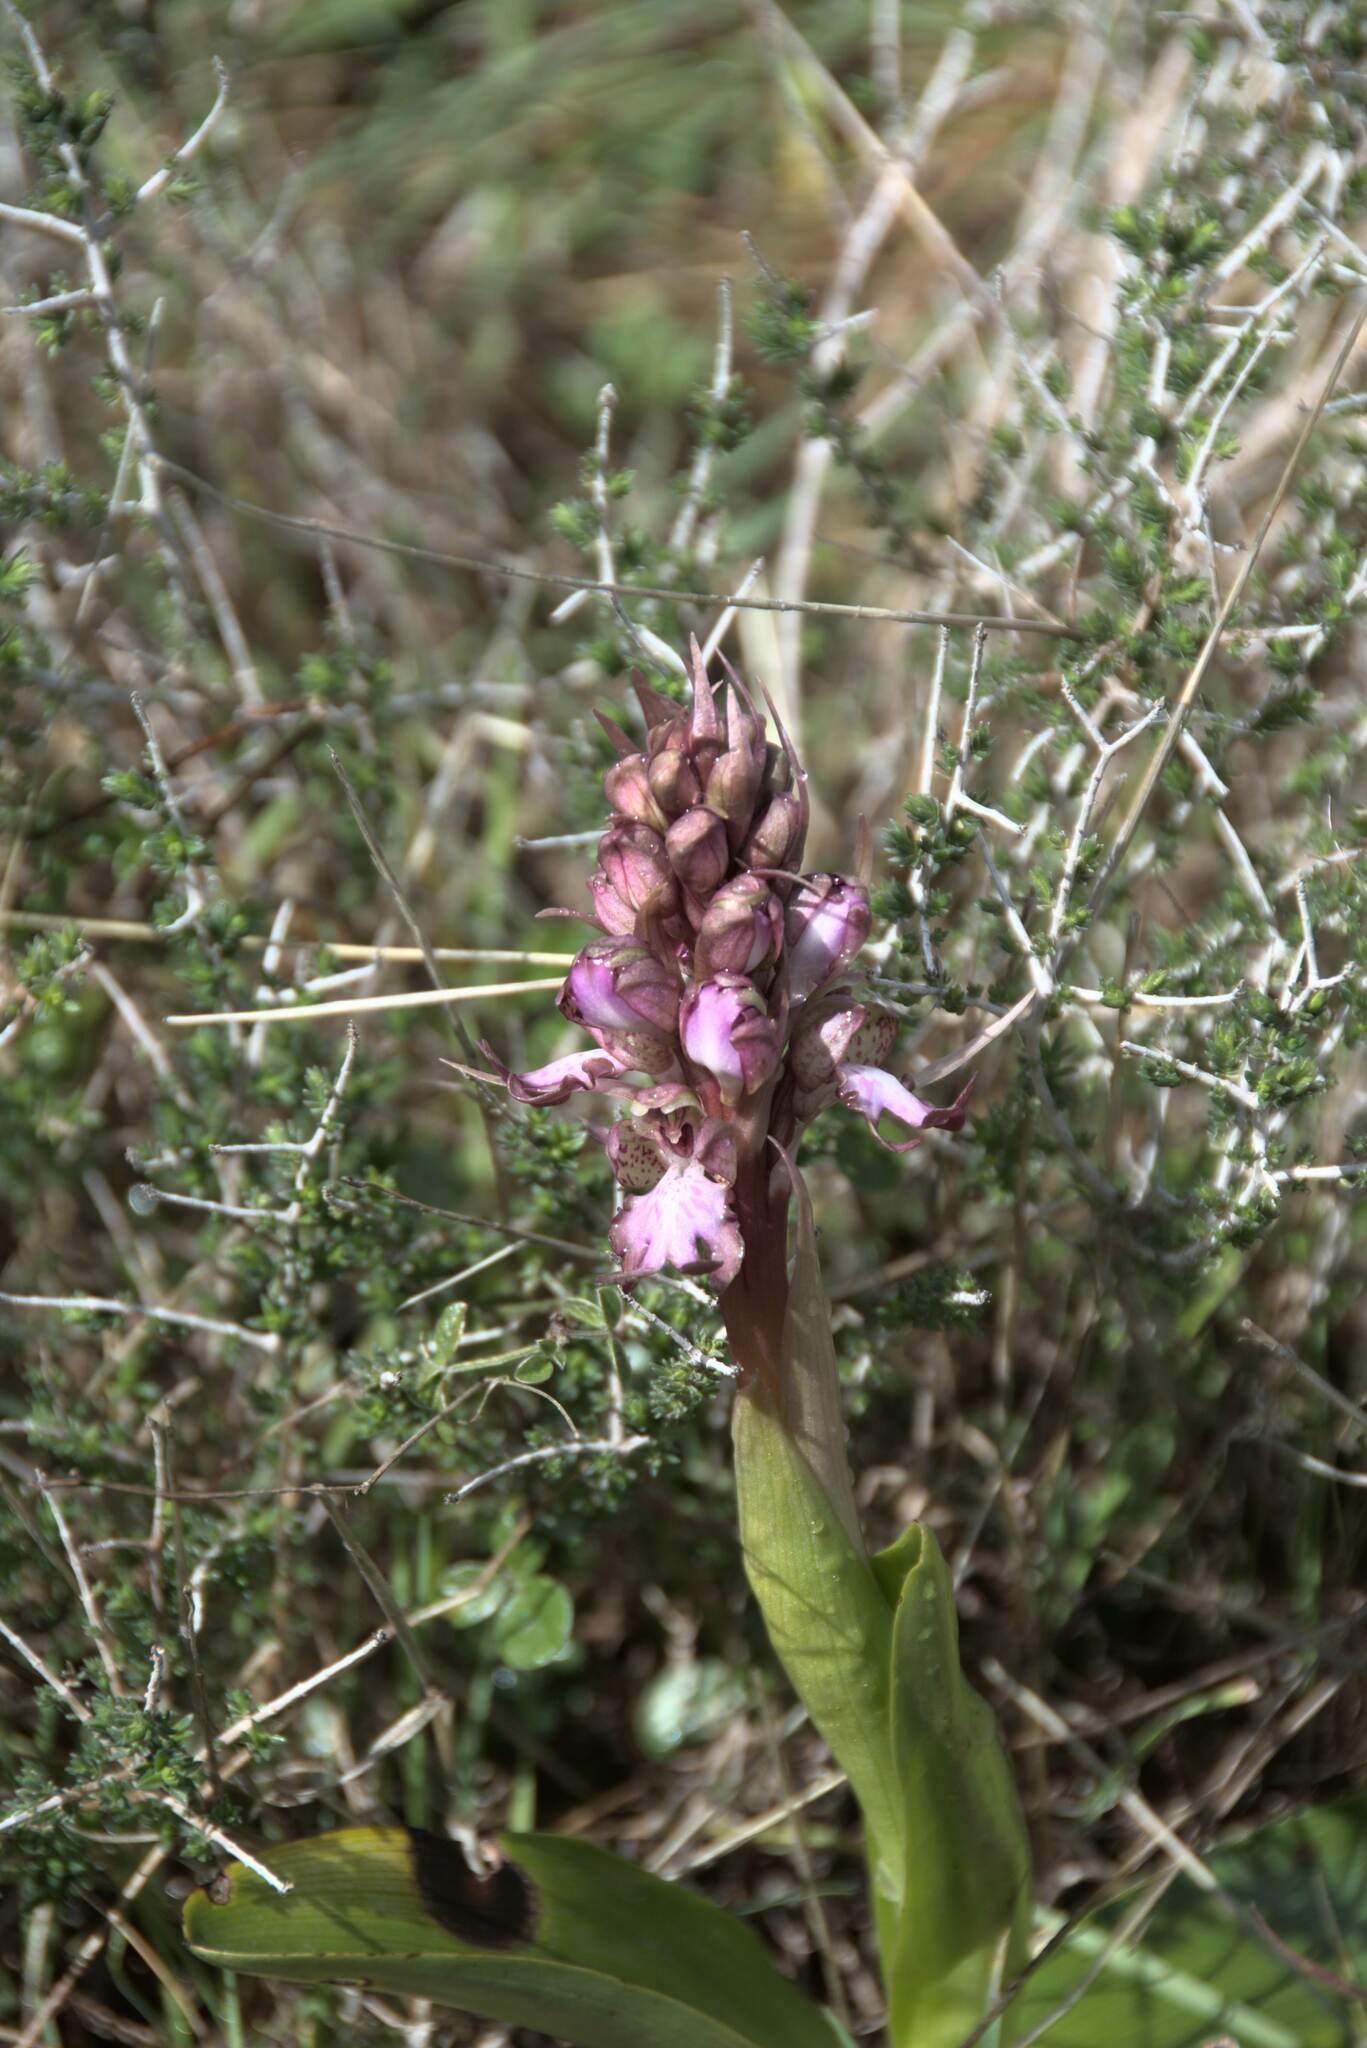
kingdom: Plantae
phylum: Tracheophyta
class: Liliopsida
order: Asparagales
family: Orchidaceae
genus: Himantoglossum
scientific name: Himantoglossum robertianum
